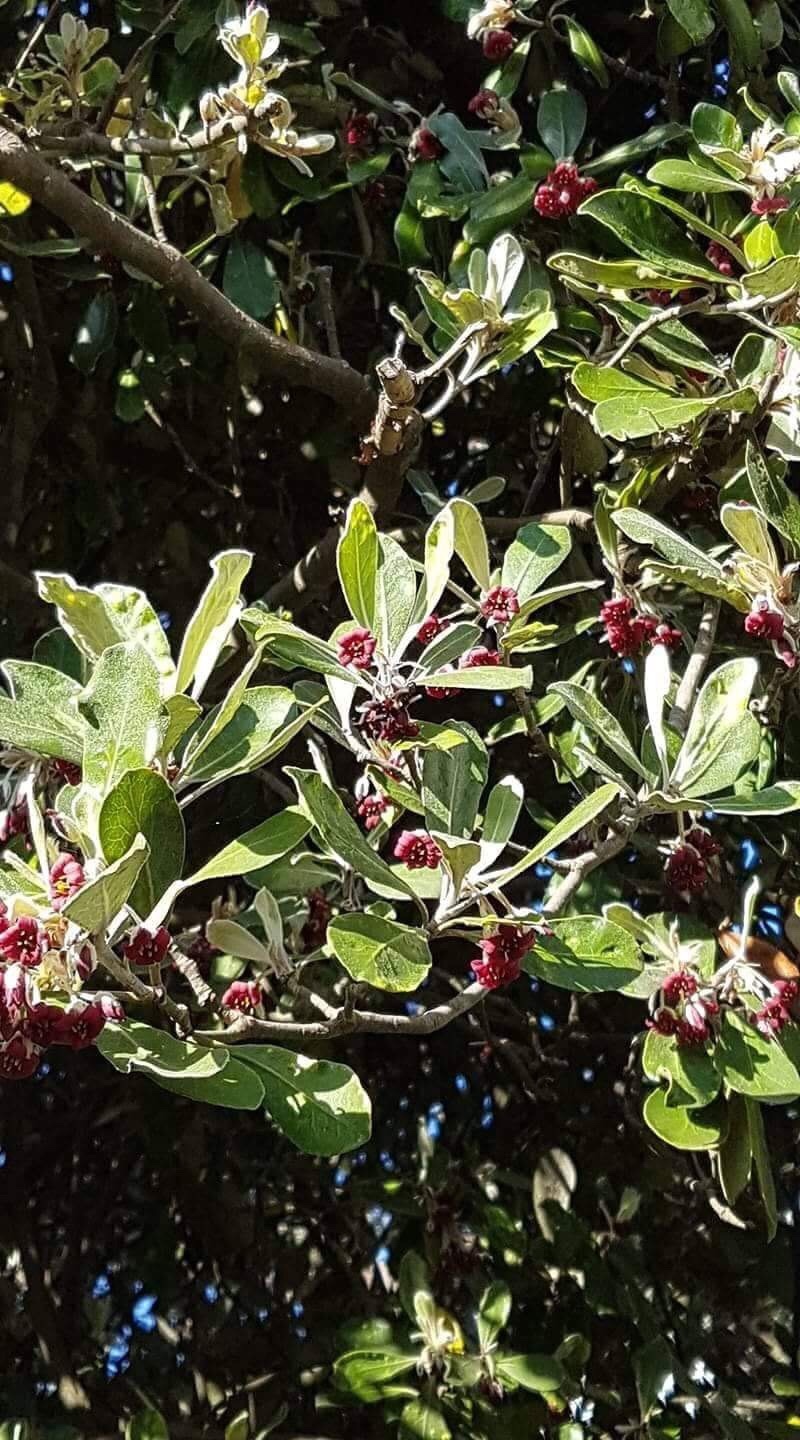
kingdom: Plantae
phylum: Tracheophyta
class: Magnoliopsida
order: Apiales
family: Pittosporaceae
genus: Pittosporum
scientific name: Pittosporum crassifolium
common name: Karo
